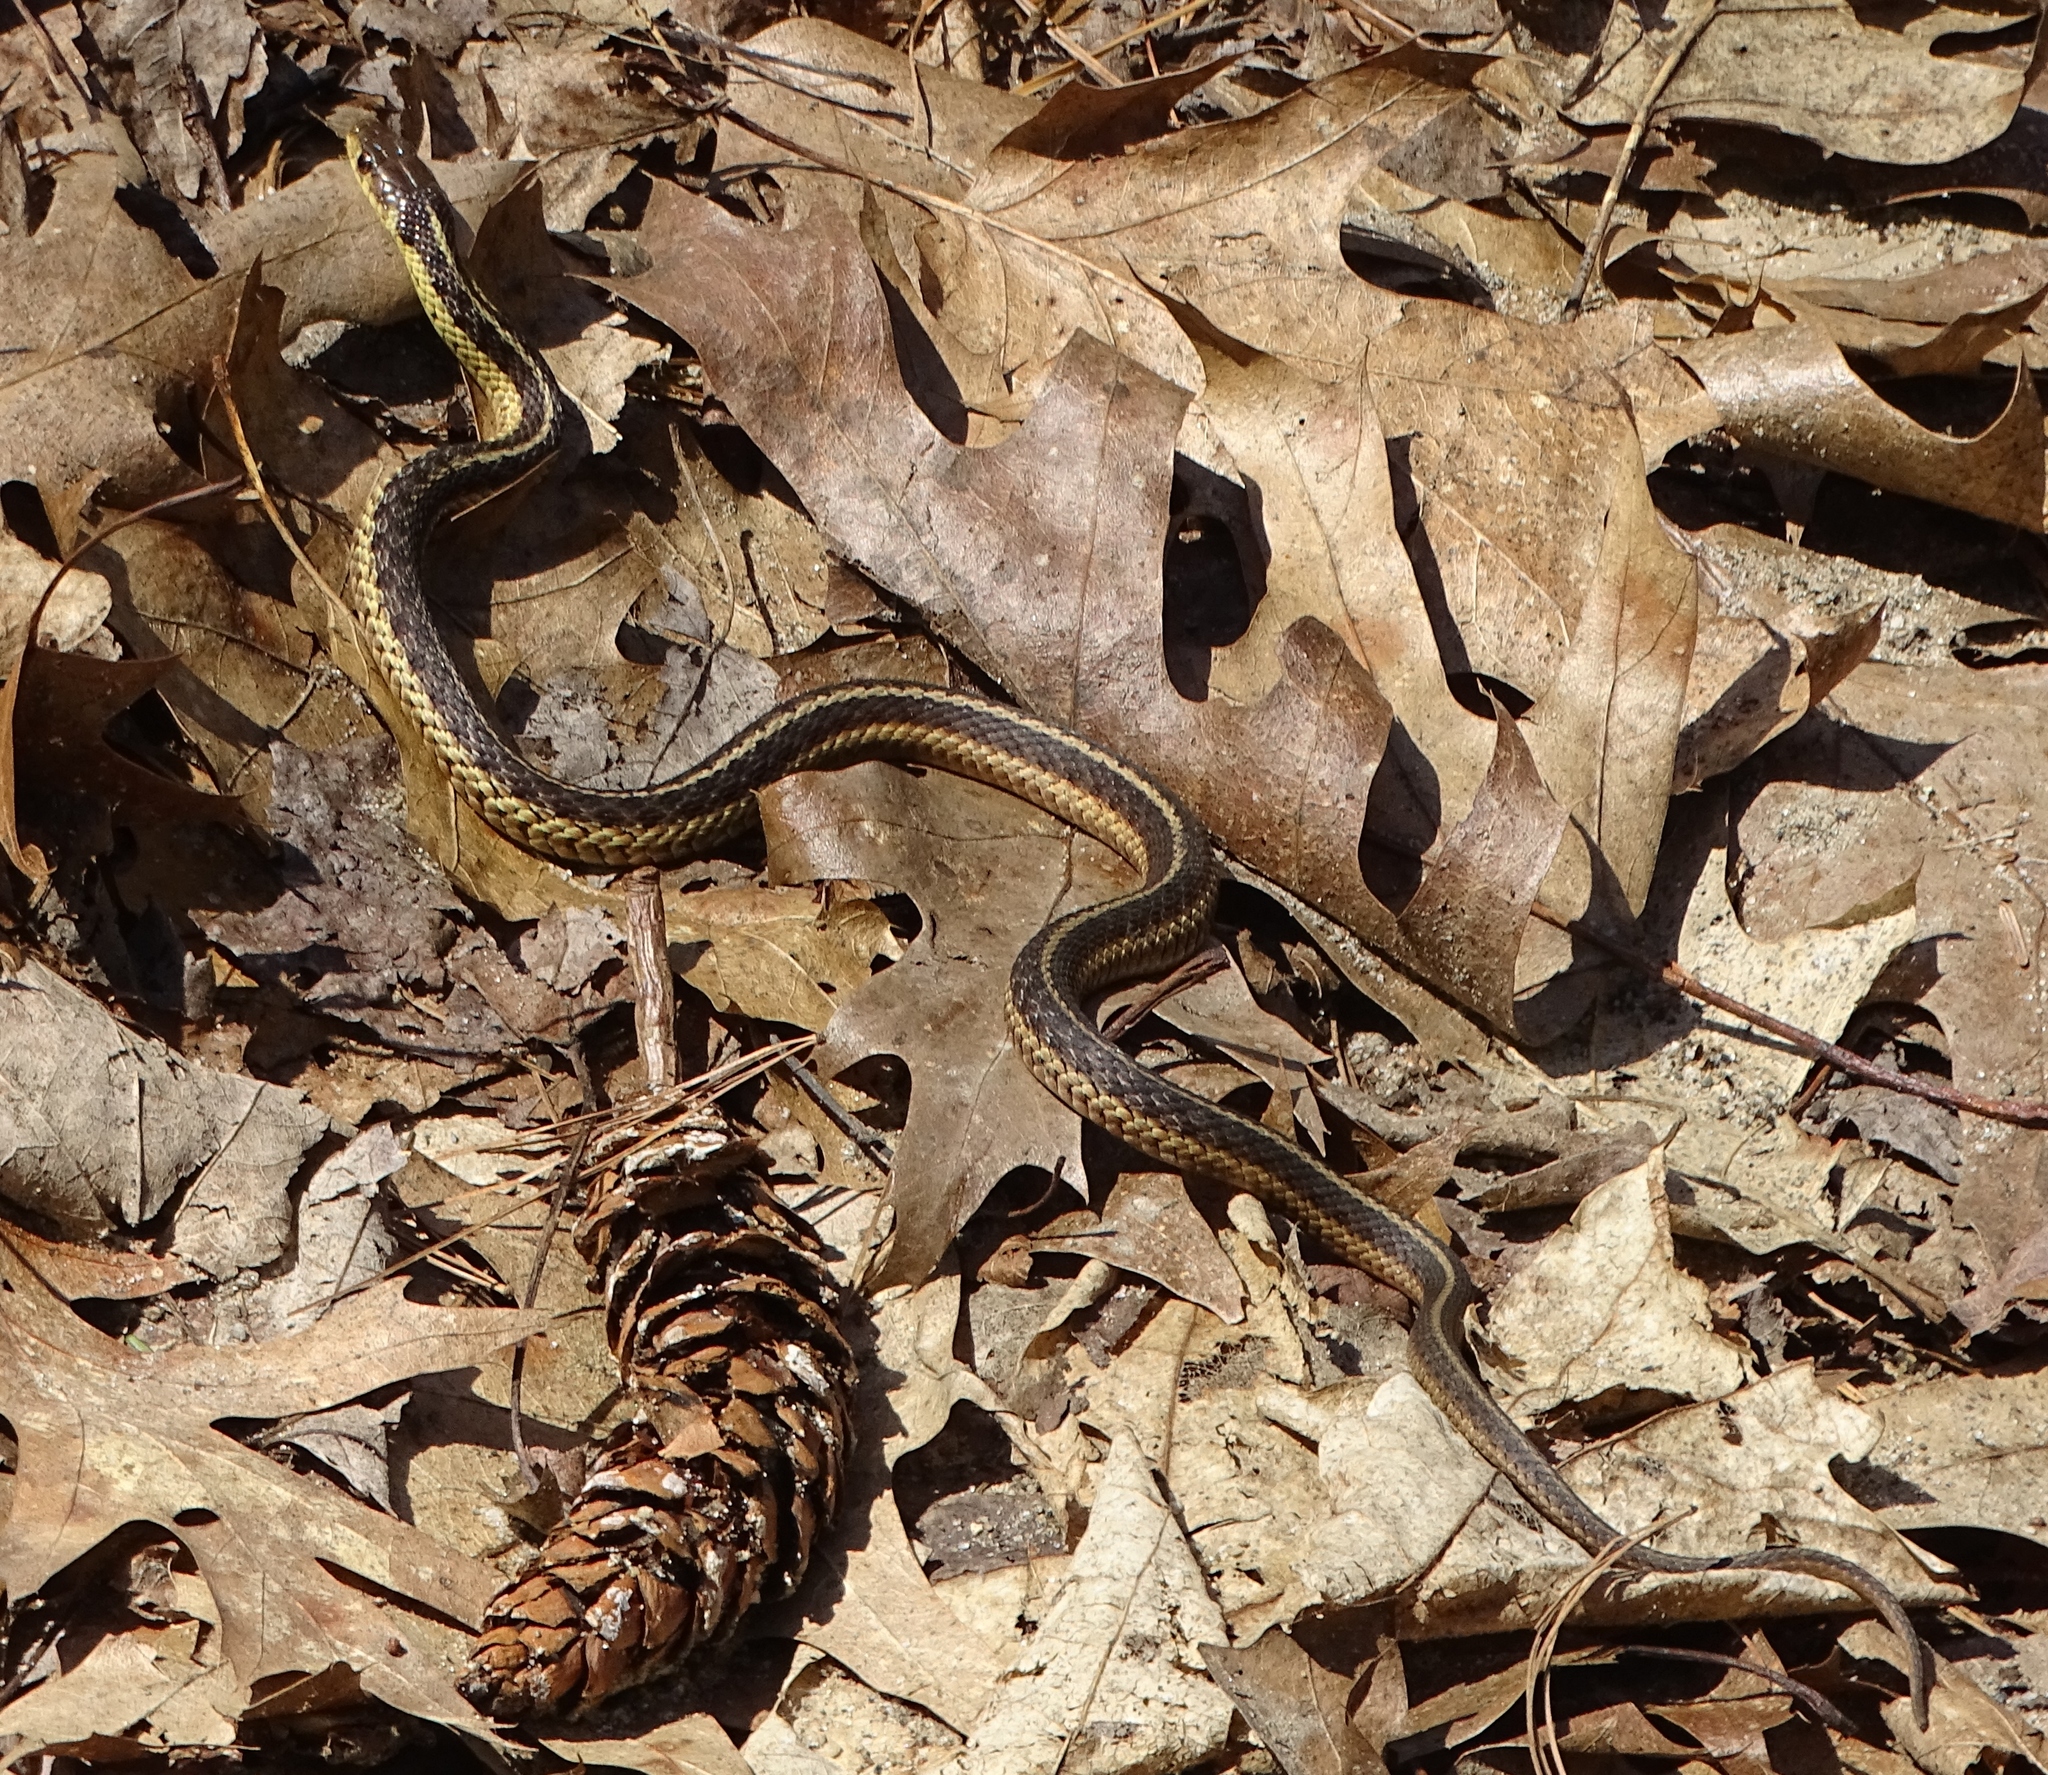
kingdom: Animalia
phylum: Chordata
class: Squamata
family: Colubridae
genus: Thamnophis
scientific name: Thamnophis sirtalis
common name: Common garter snake
